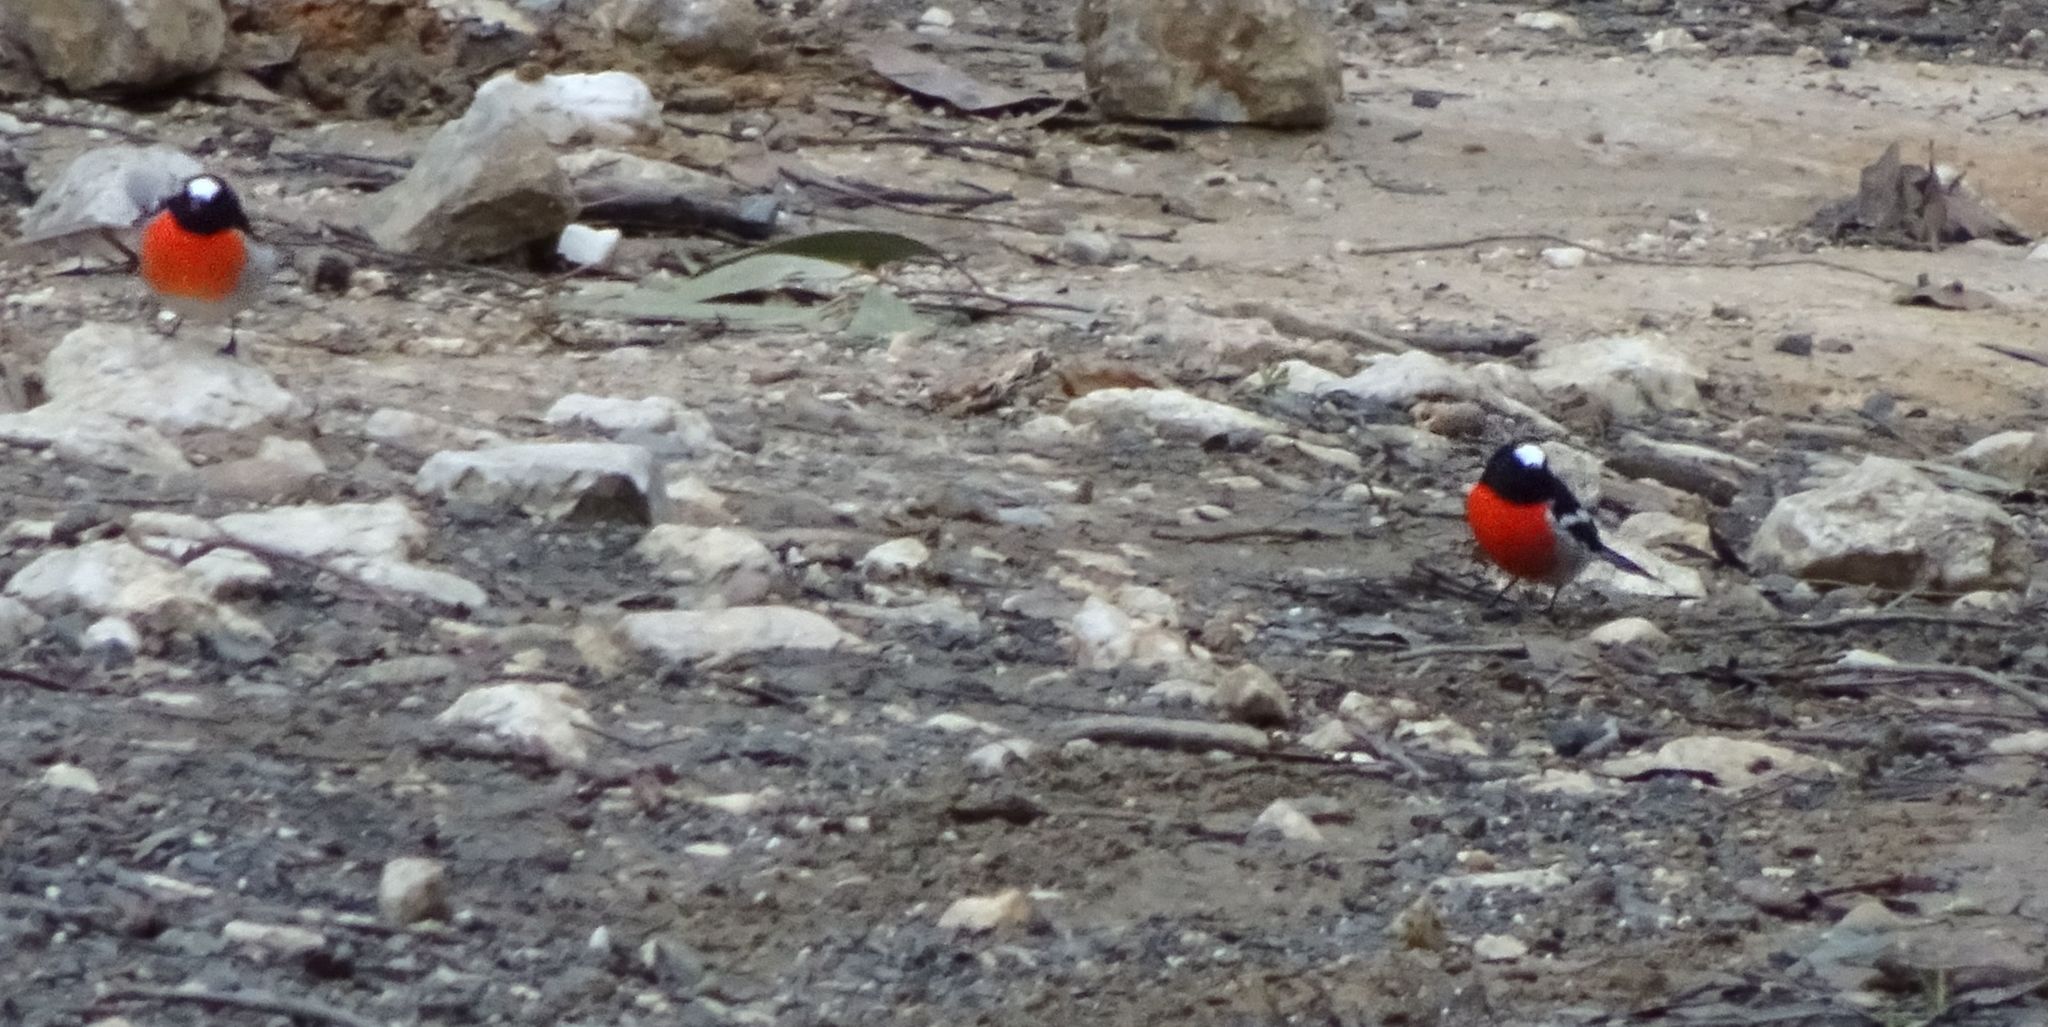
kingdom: Animalia
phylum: Chordata
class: Aves
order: Passeriformes
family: Petroicidae
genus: Petroica
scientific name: Petroica boodang
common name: Scarlet robin
